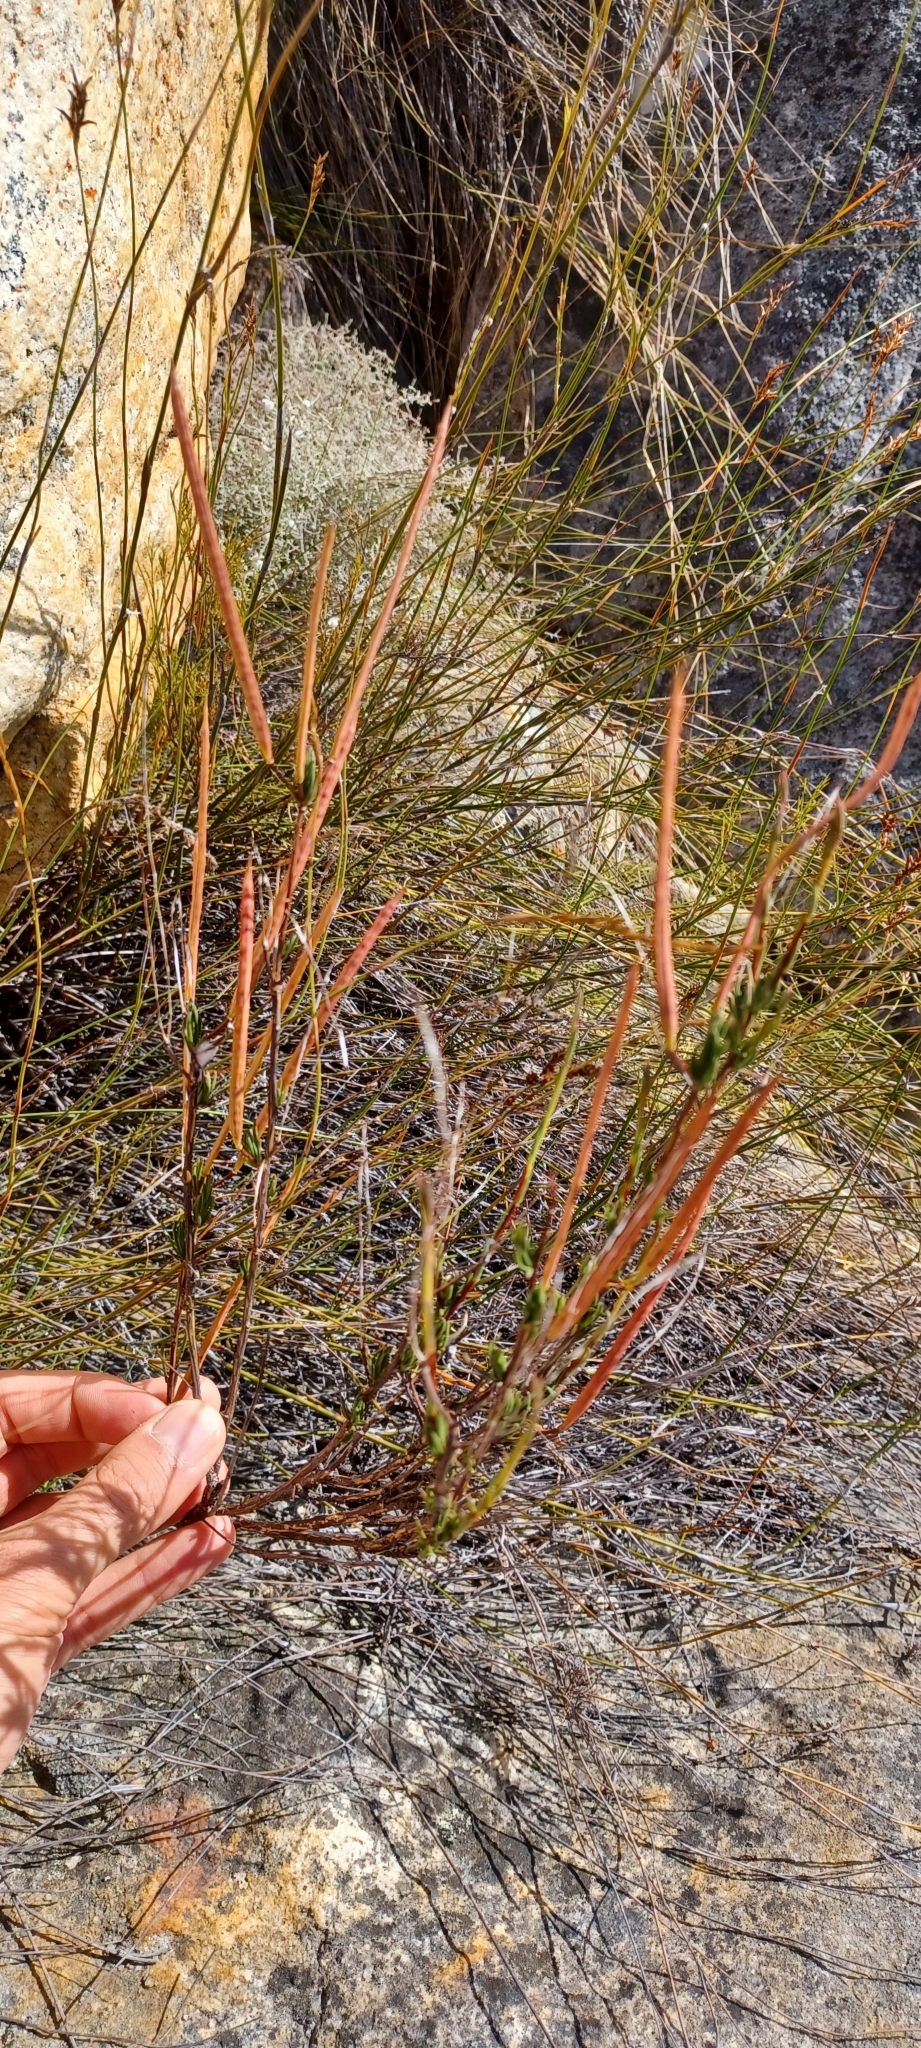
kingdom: Plantae
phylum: Tracheophyta
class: Magnoliopsida
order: Brassicales
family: Brassicaceae
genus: Heliophila
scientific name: Heliophila scoparia
